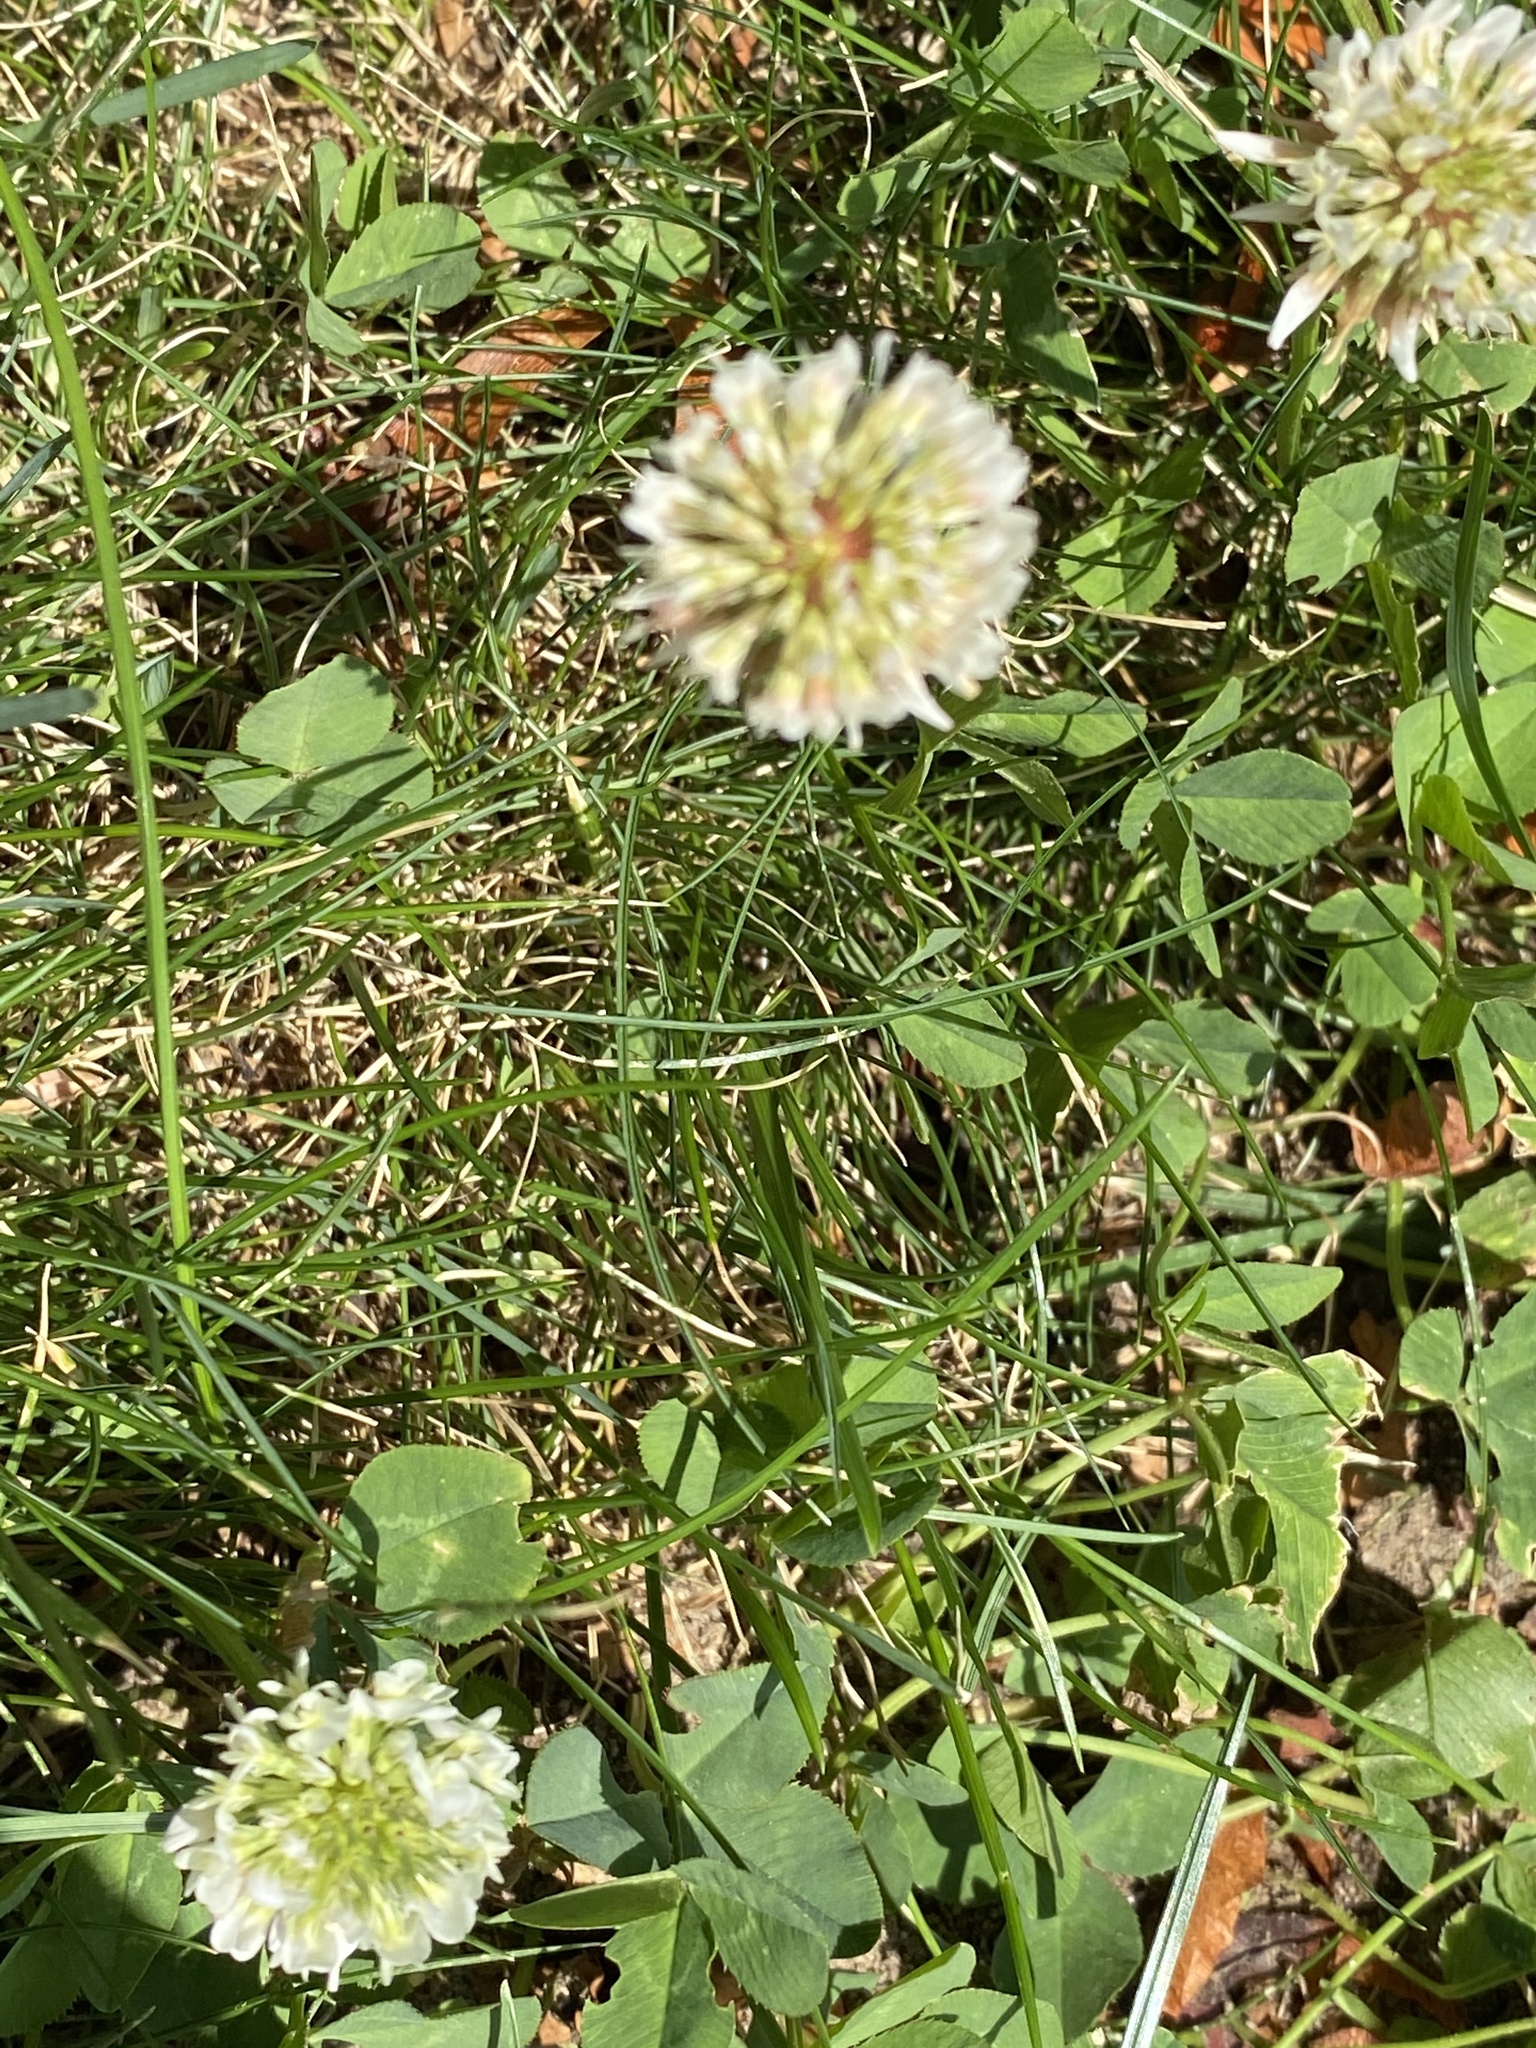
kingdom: Plantae
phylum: Tracheophyta
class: Magnoliopsida
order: Fabales
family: Fabaceae
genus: Trifolium
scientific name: Trifolium repens
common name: White clover
